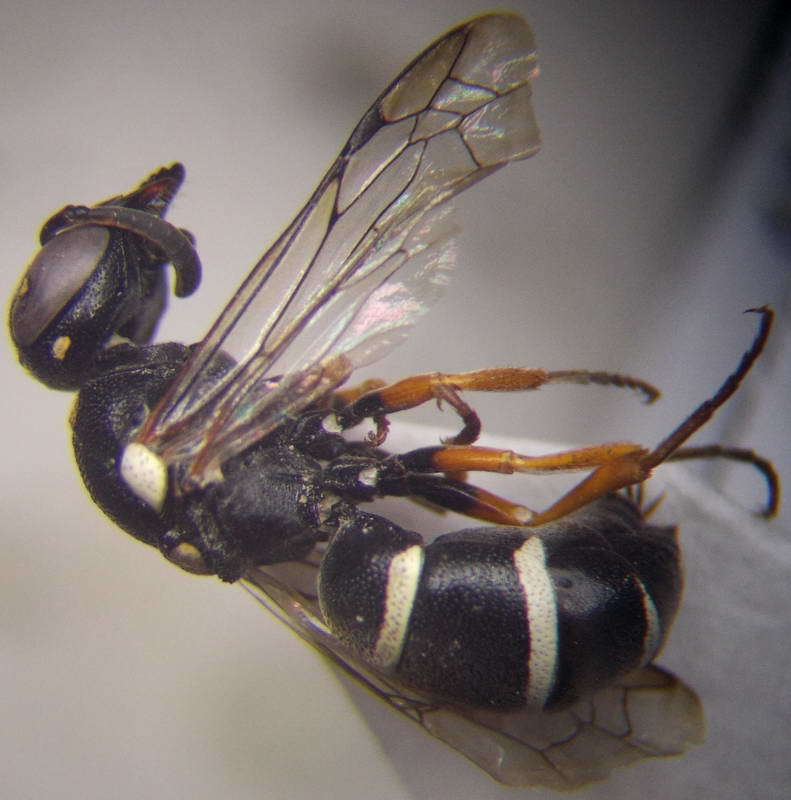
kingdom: Animalia
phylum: Arthropoda
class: Insecta
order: Hymenoptera
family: Eumenidae
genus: Brachypipona
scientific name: Brachypipona laticeps
